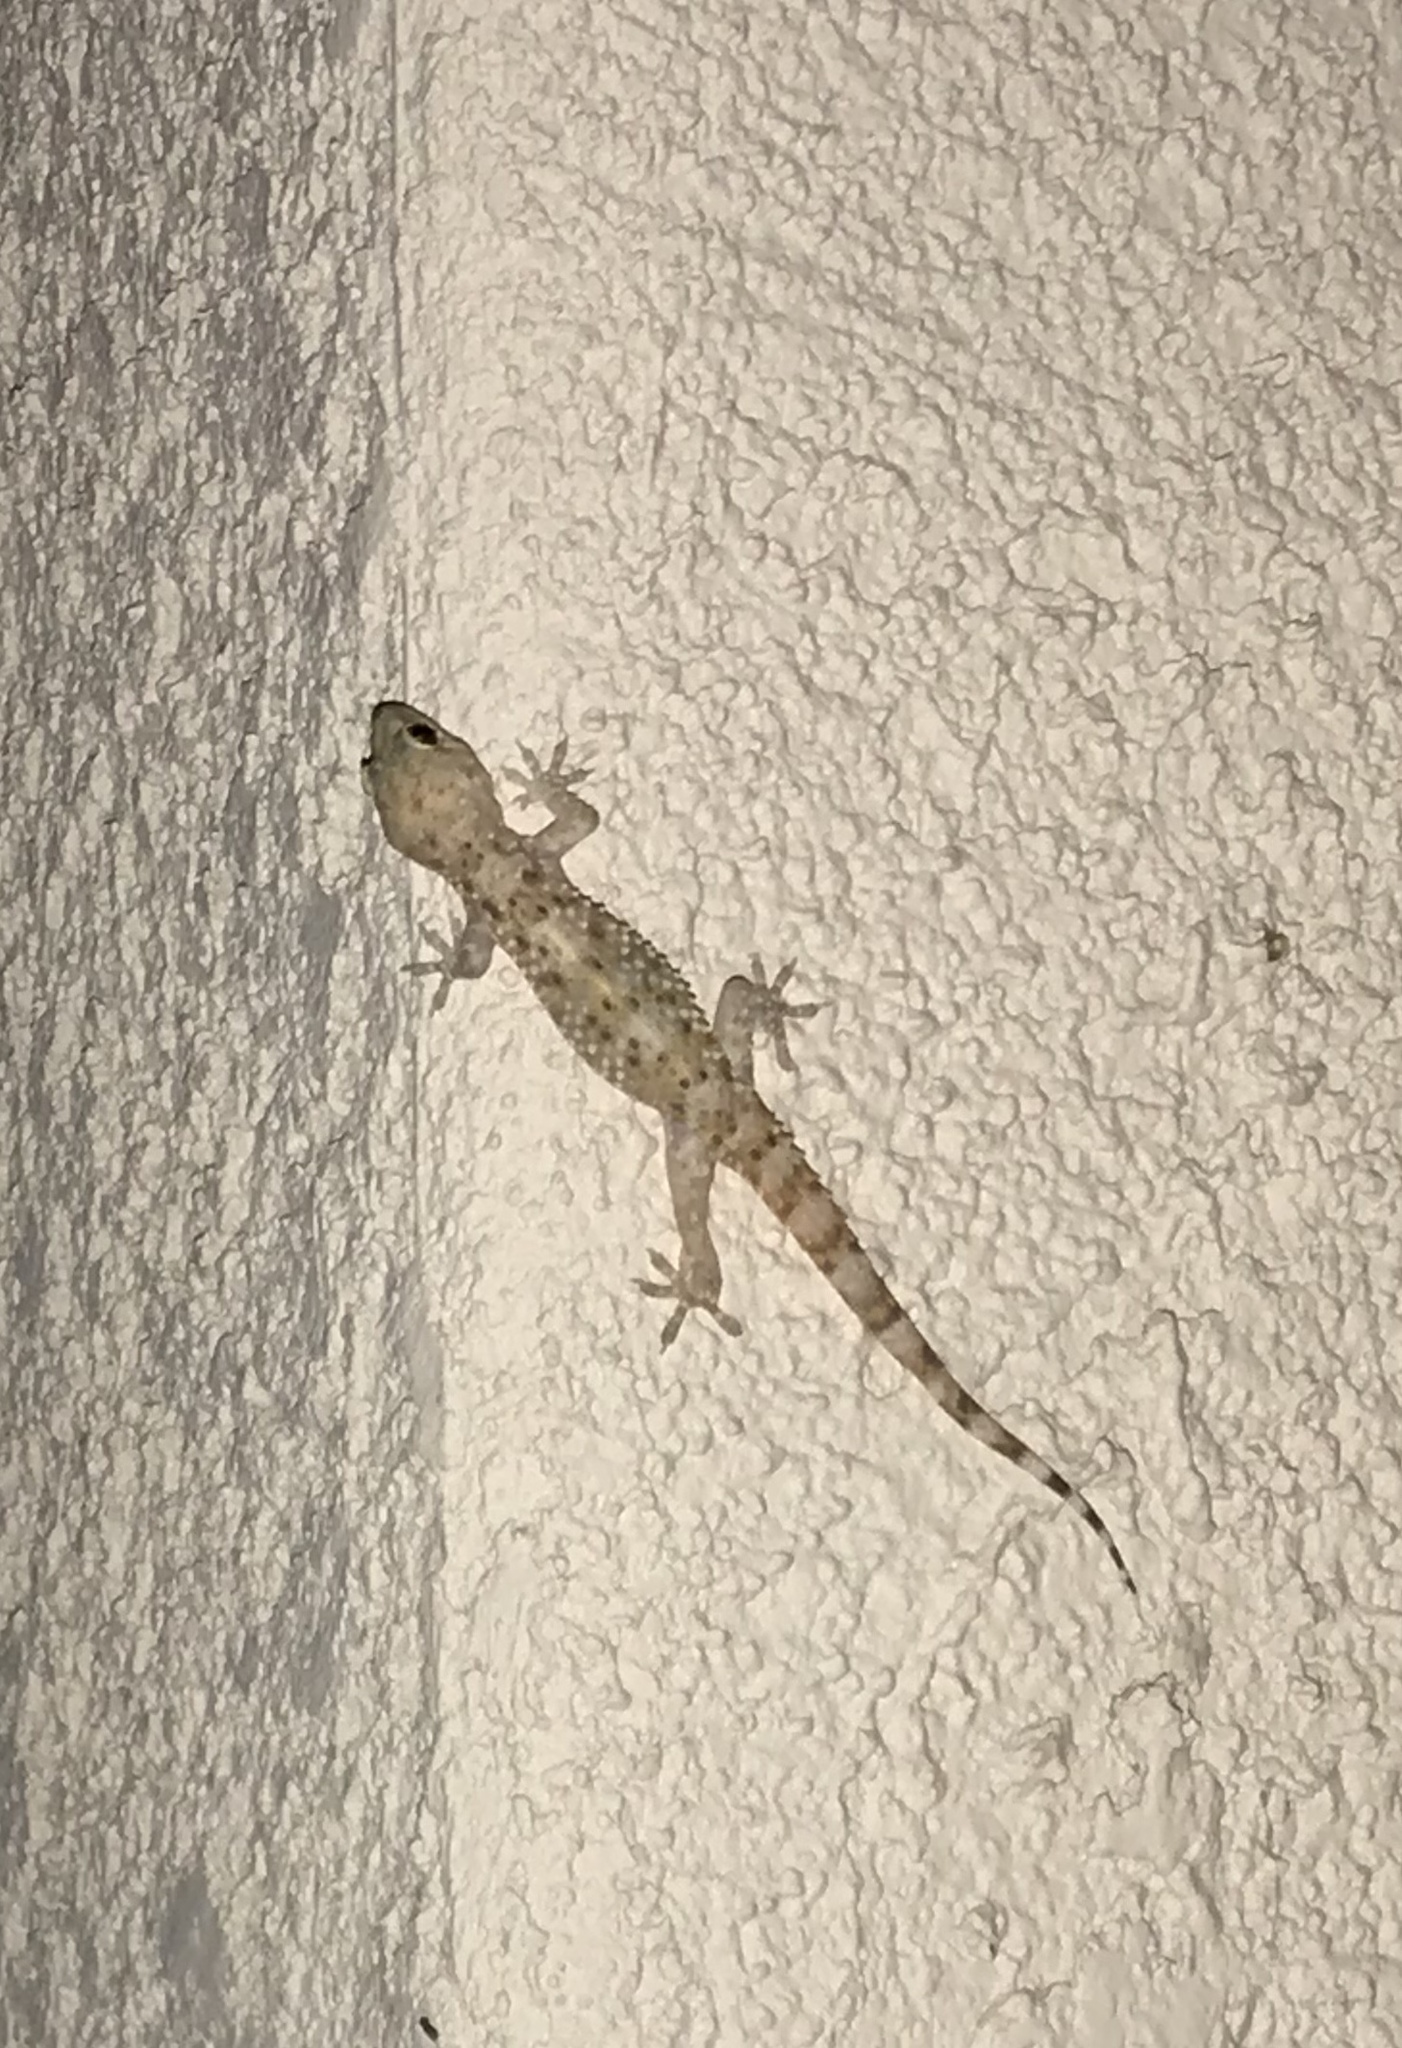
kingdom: Animalia
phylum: Chordata
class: Squamata
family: Gekkonidae
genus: Hemidactylus
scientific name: Hemidactylus turcicus
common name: Turkish gecko
